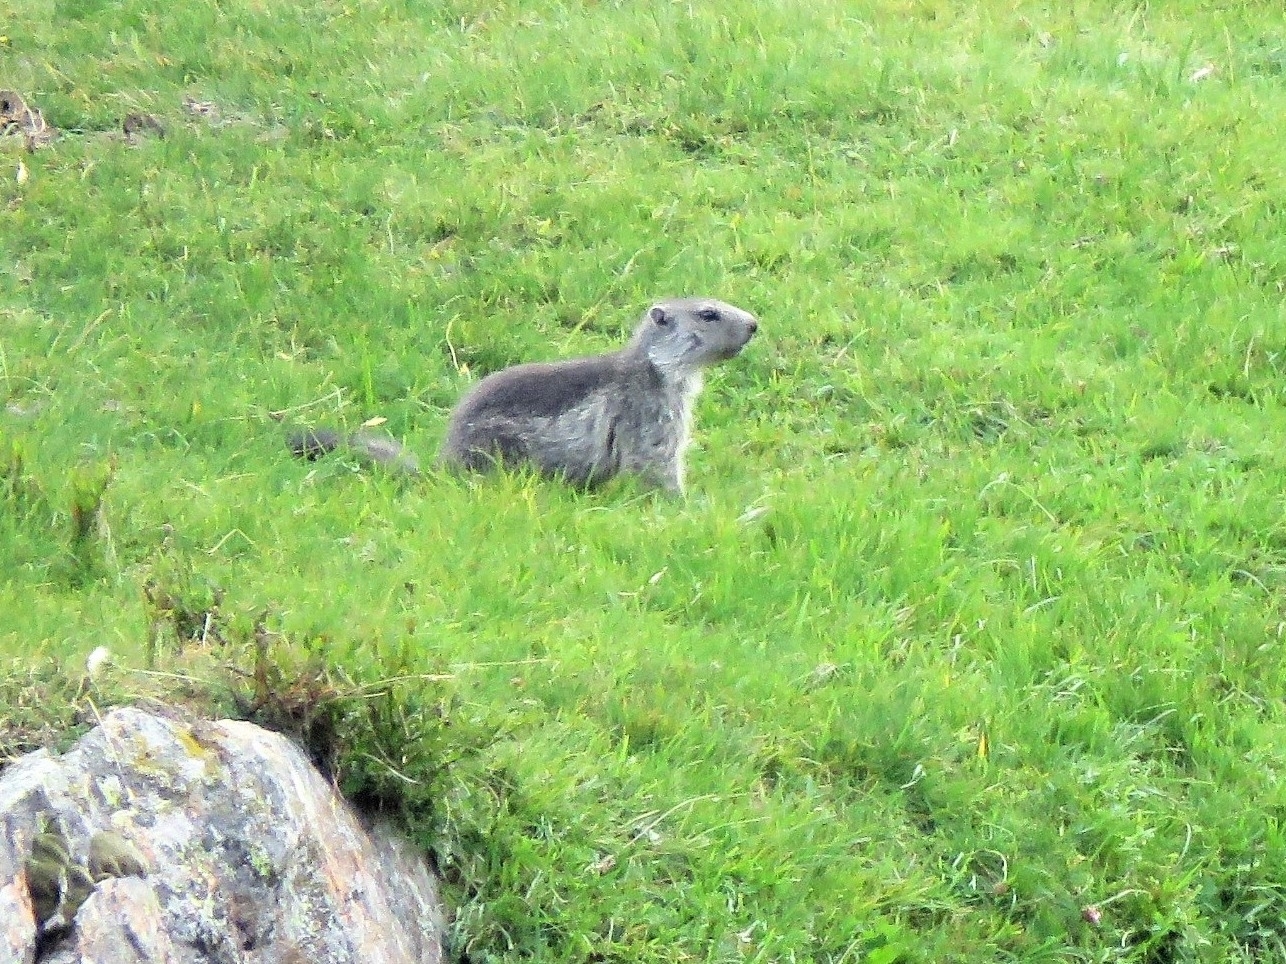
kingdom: Animalia
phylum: Chordata
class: Mammalia
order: Rodentia
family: Sciuridae
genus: Marmota
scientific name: Marmota marmota
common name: Alpine marmot
